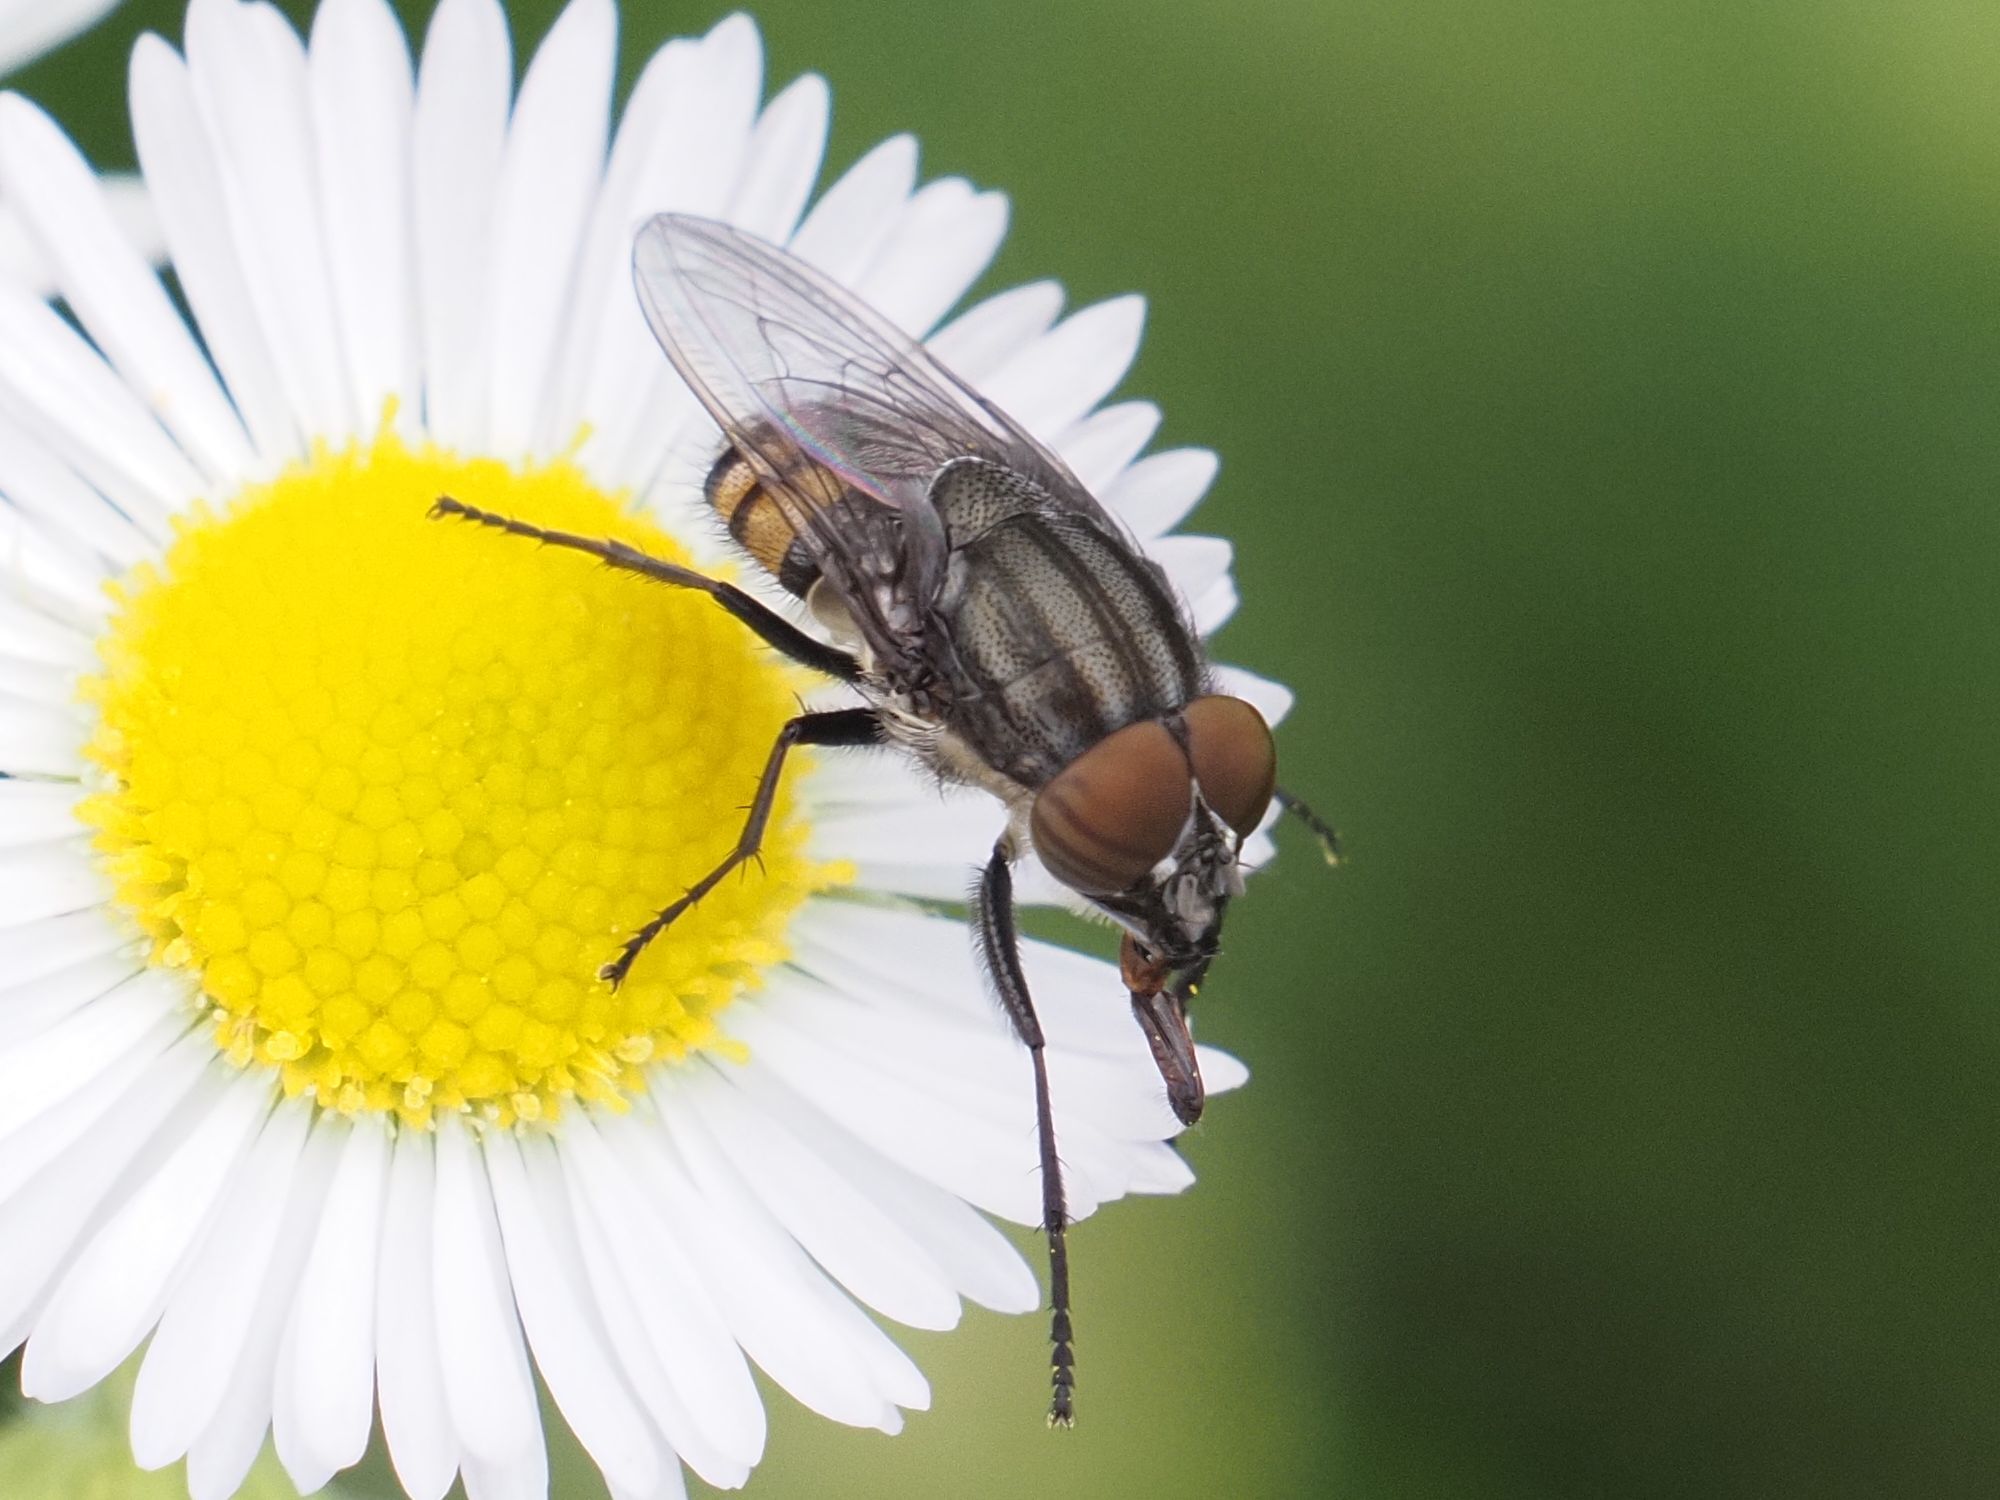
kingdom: Animalia
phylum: Arthropoda
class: Insecta
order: Diptera
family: Calliphoridae
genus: Stomorhina
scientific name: Stomorhina lunata
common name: Locust blowfly
